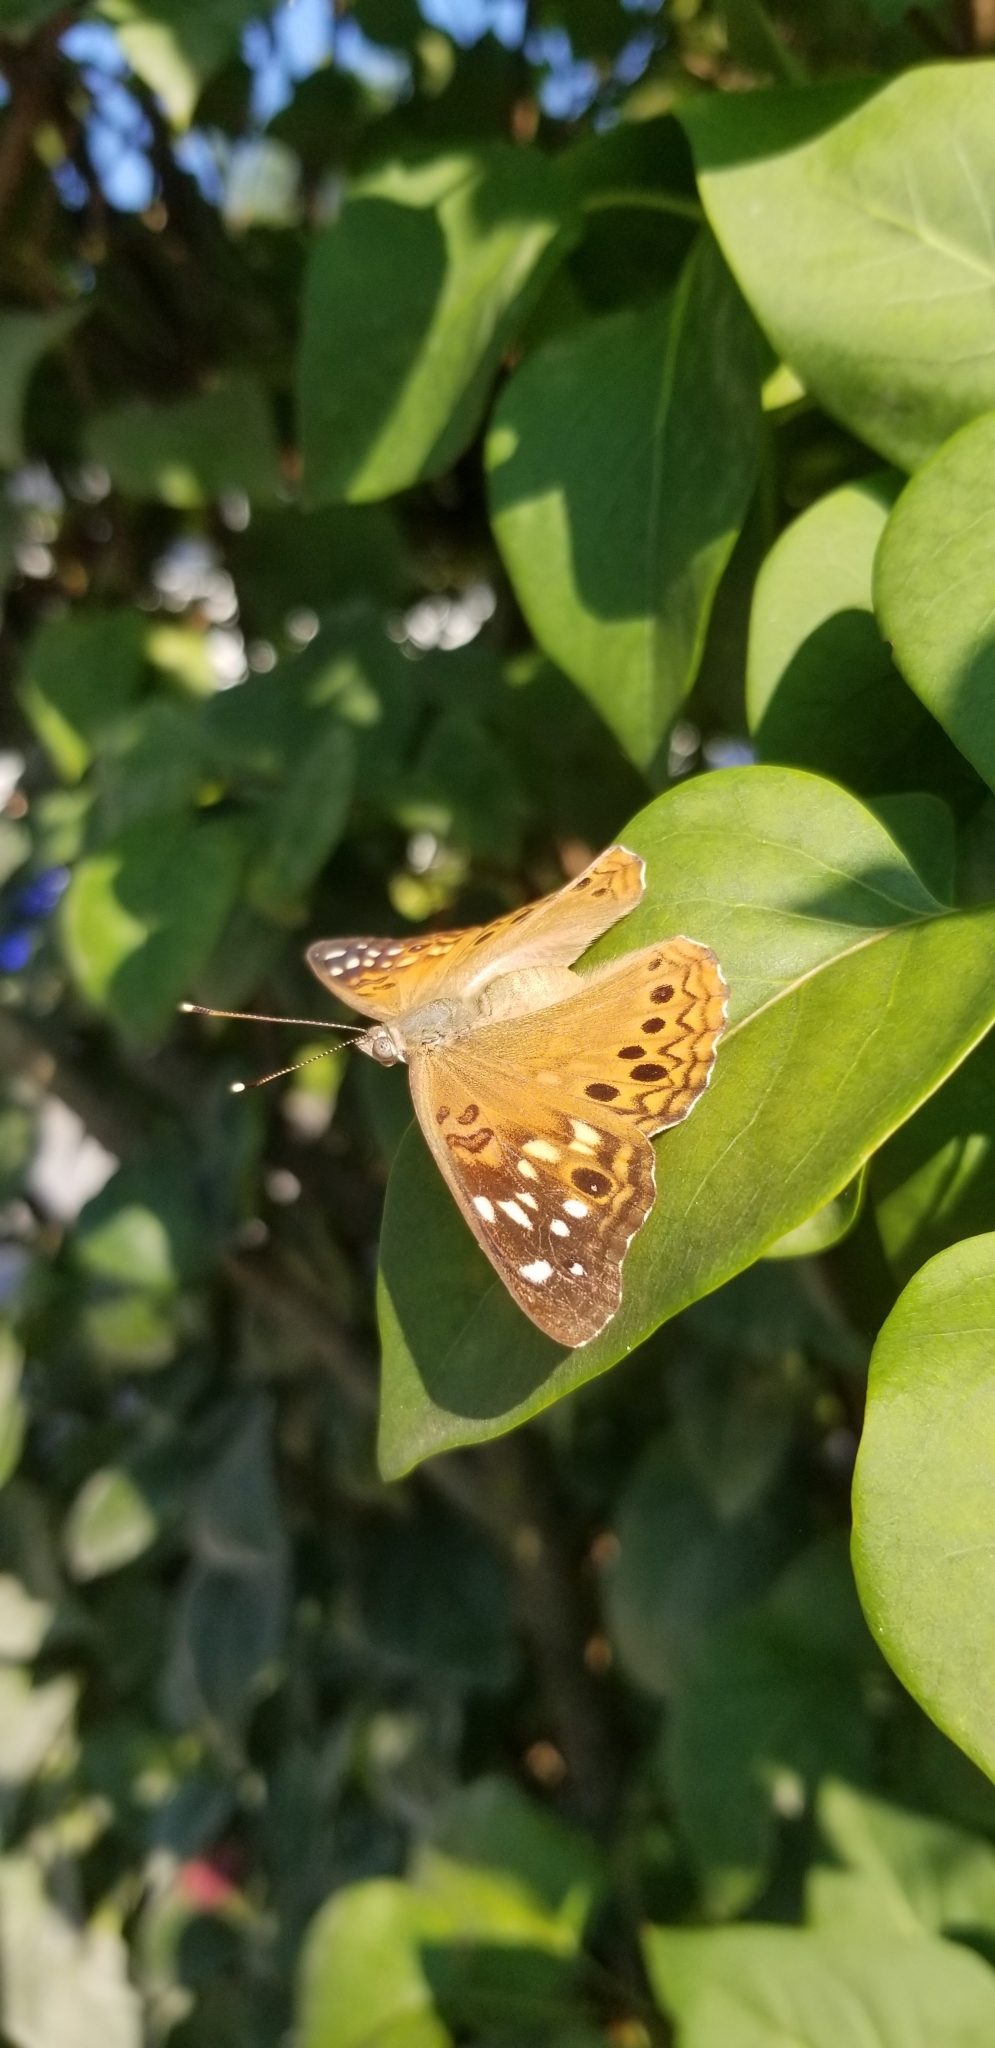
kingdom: Animalia
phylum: Arthropoda
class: Insecta
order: Lepidoptera
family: Nymphalidae
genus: Asterocampa
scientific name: Asterocampa celtis
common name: Hackberry emperor
